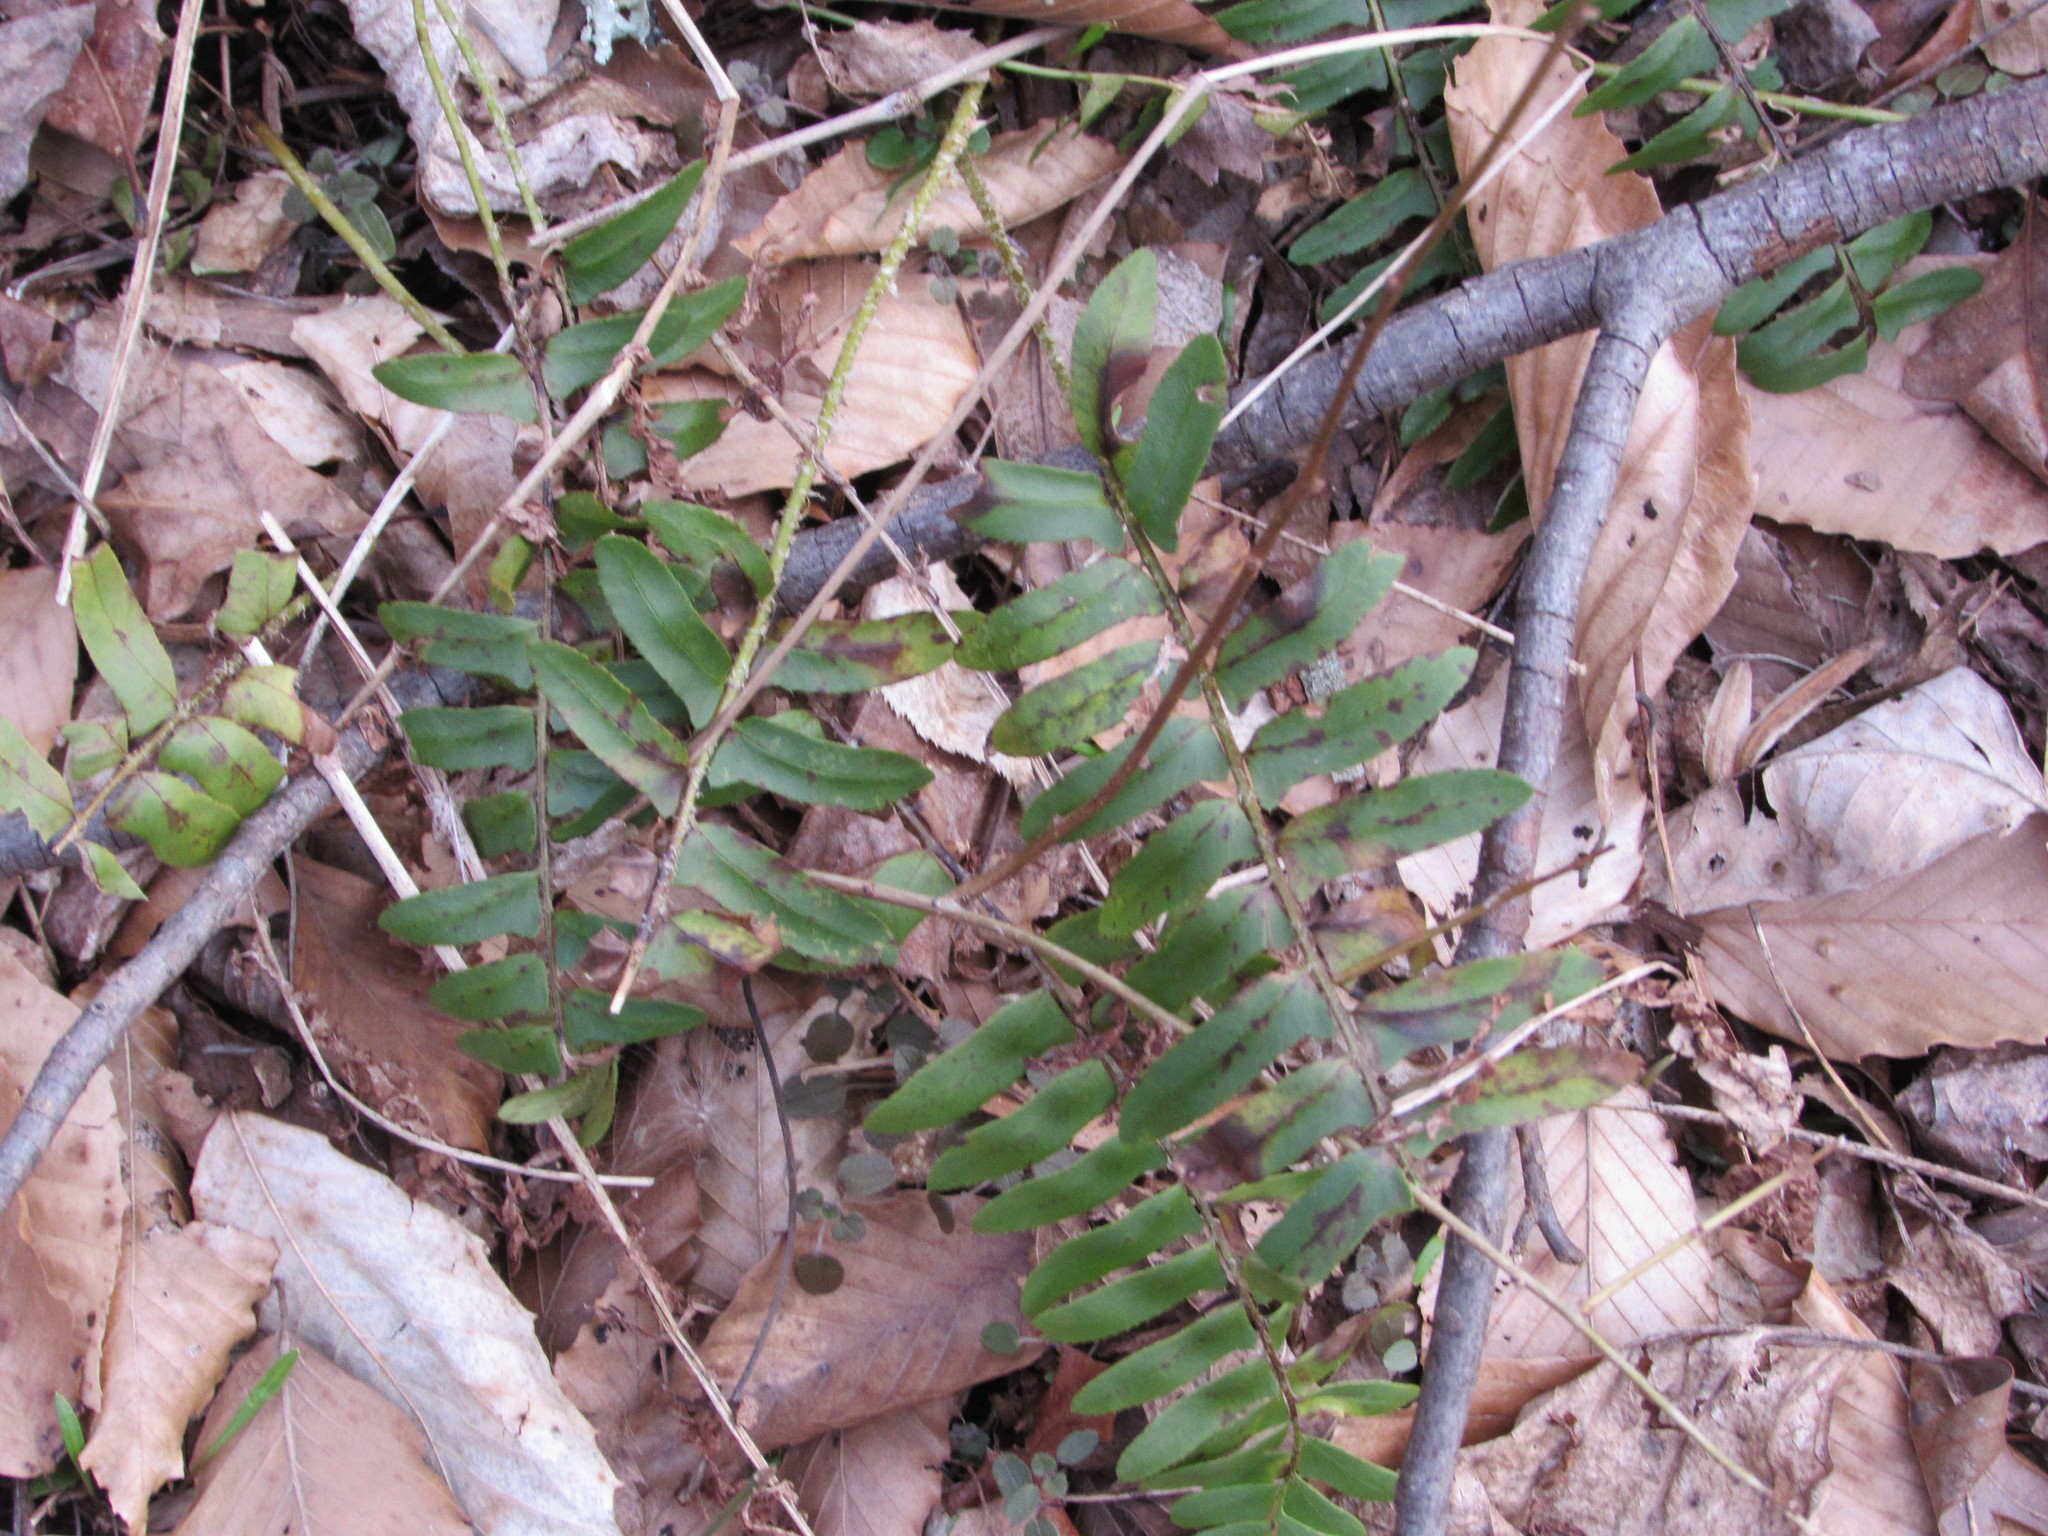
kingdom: Plantae
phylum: Tracheophyta
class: Polypodiopsida
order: Polypodiales
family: Dryopteridaceae
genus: Polystichum
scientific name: Polystichum acrostichoides
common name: Christmas fern
